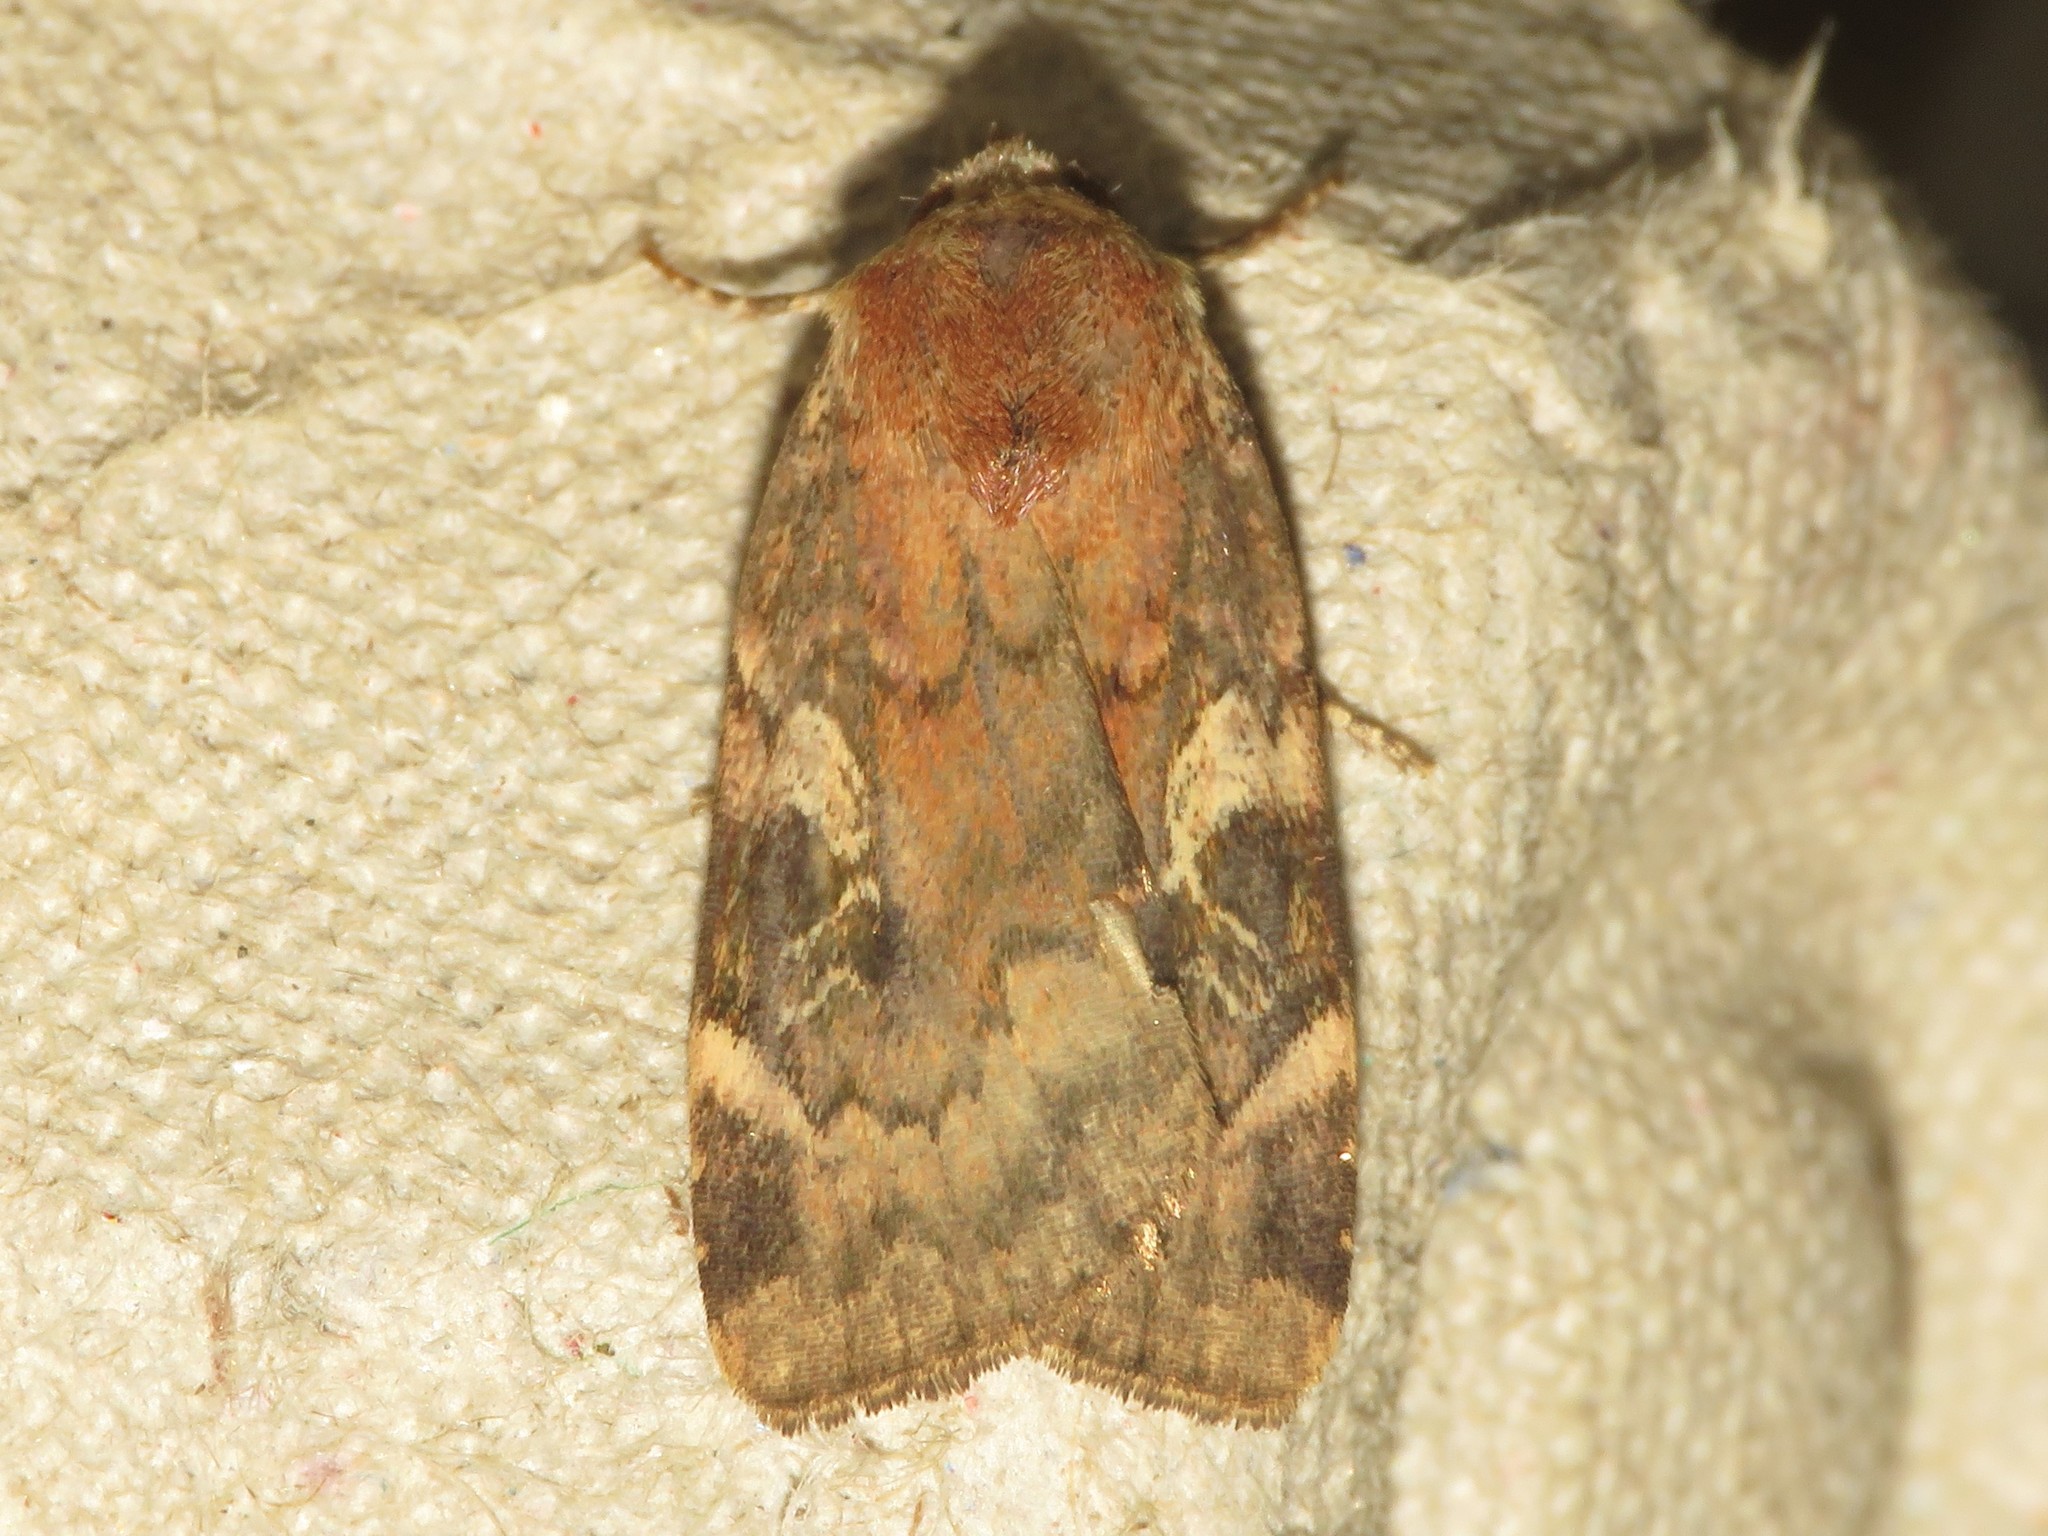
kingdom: Animalia
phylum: Arthropoda
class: Insecta
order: Lepidoptera
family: Noctuidae
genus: Cryptocala
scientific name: Cryptocala acadiensis
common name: Catocaline dart
